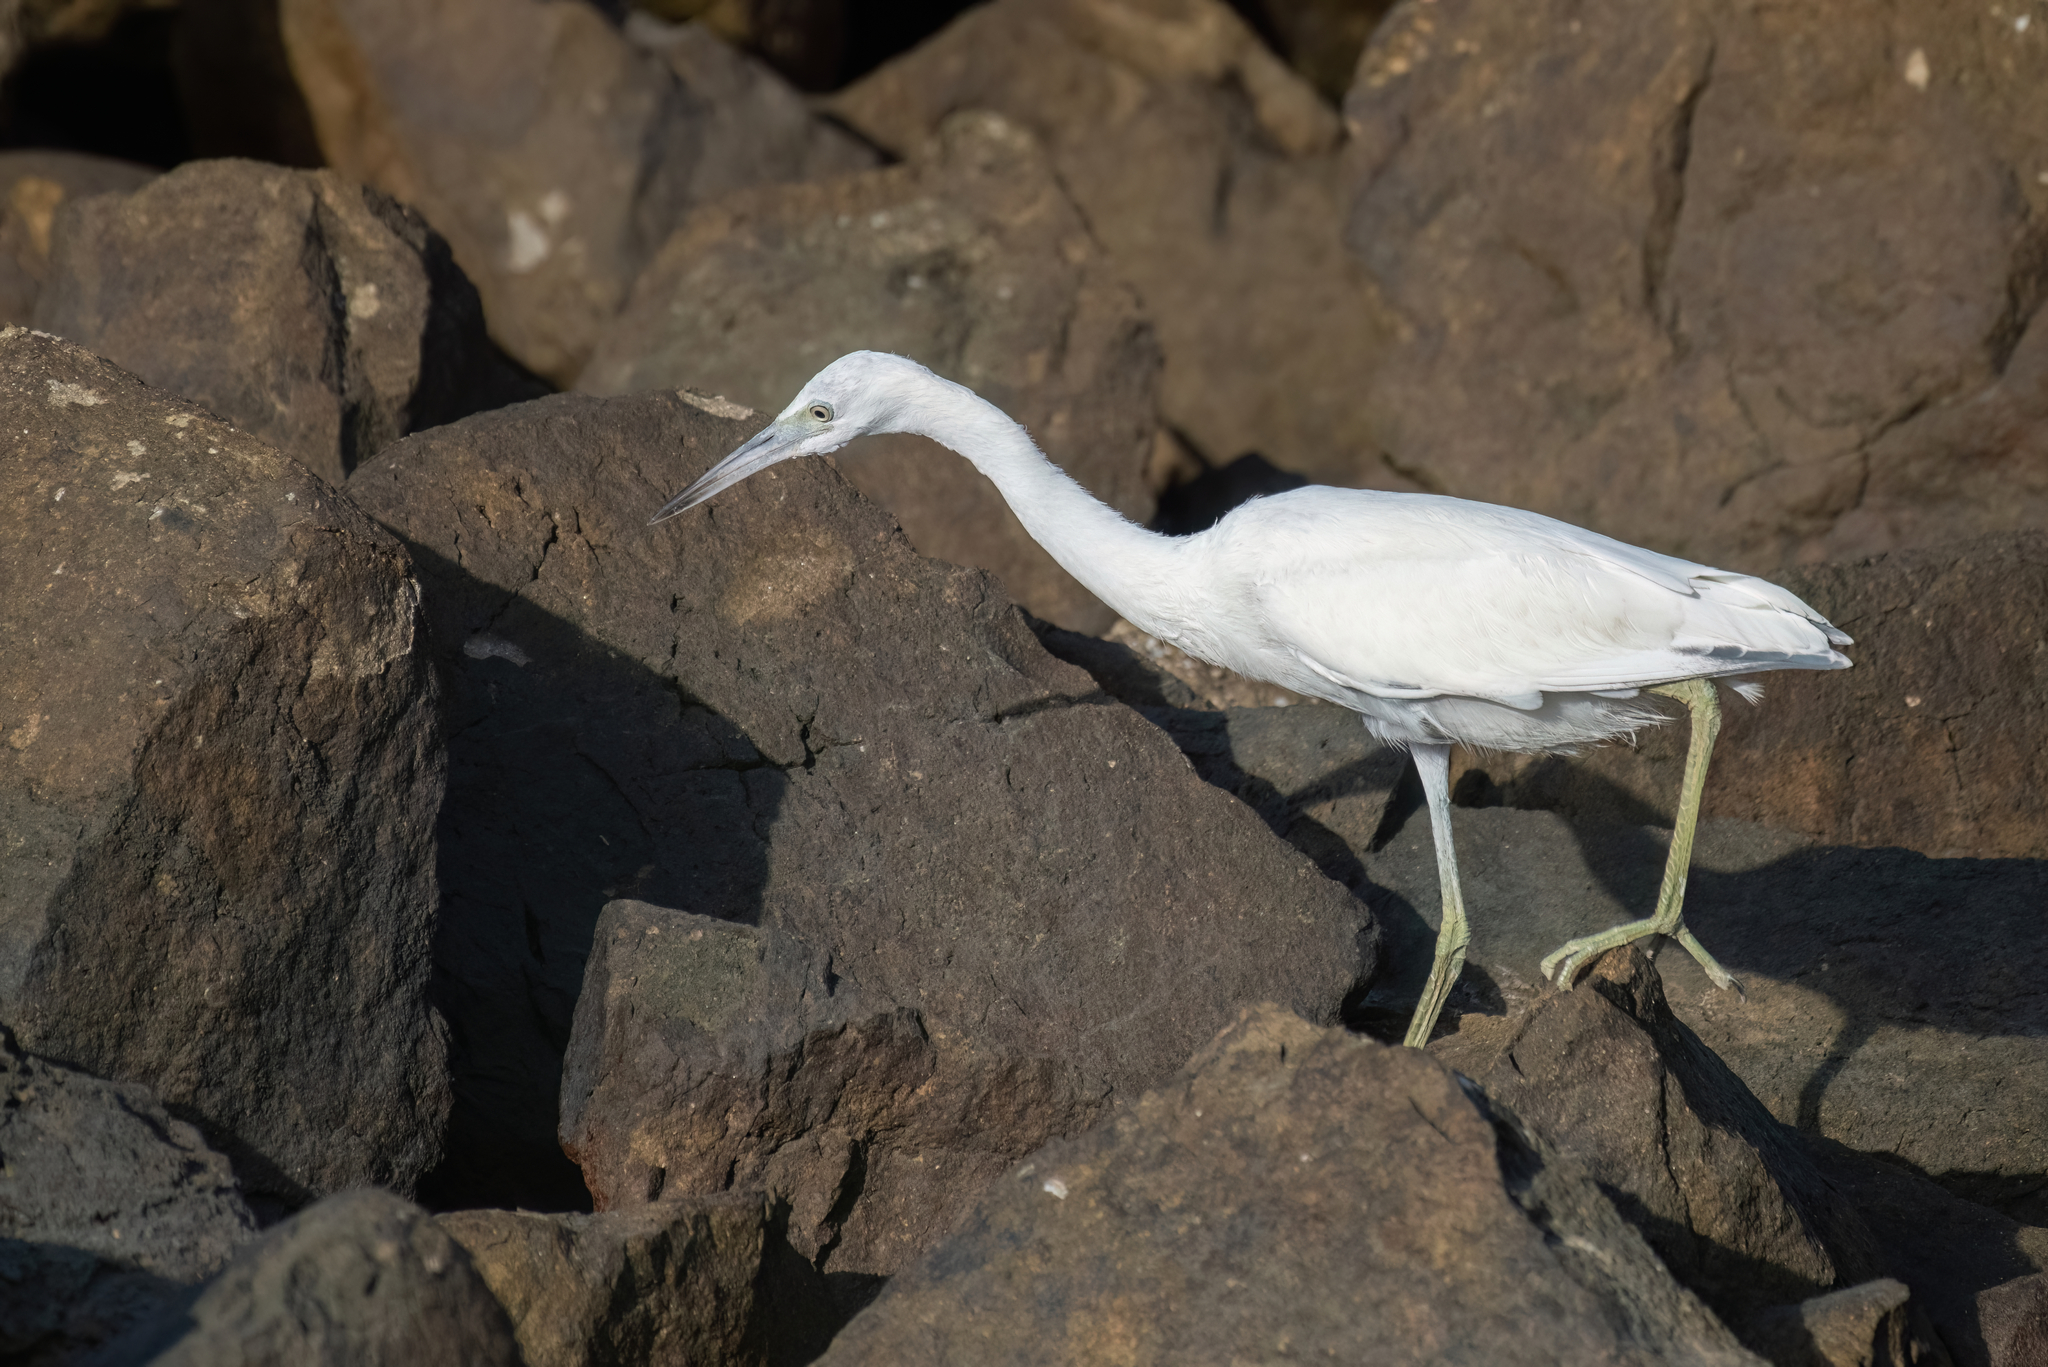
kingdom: Animalia
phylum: Chordata
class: Aves
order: Pelecaniformes
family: Ardeidae
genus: Egretta
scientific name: Egretta caerulea
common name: Little blue heron
